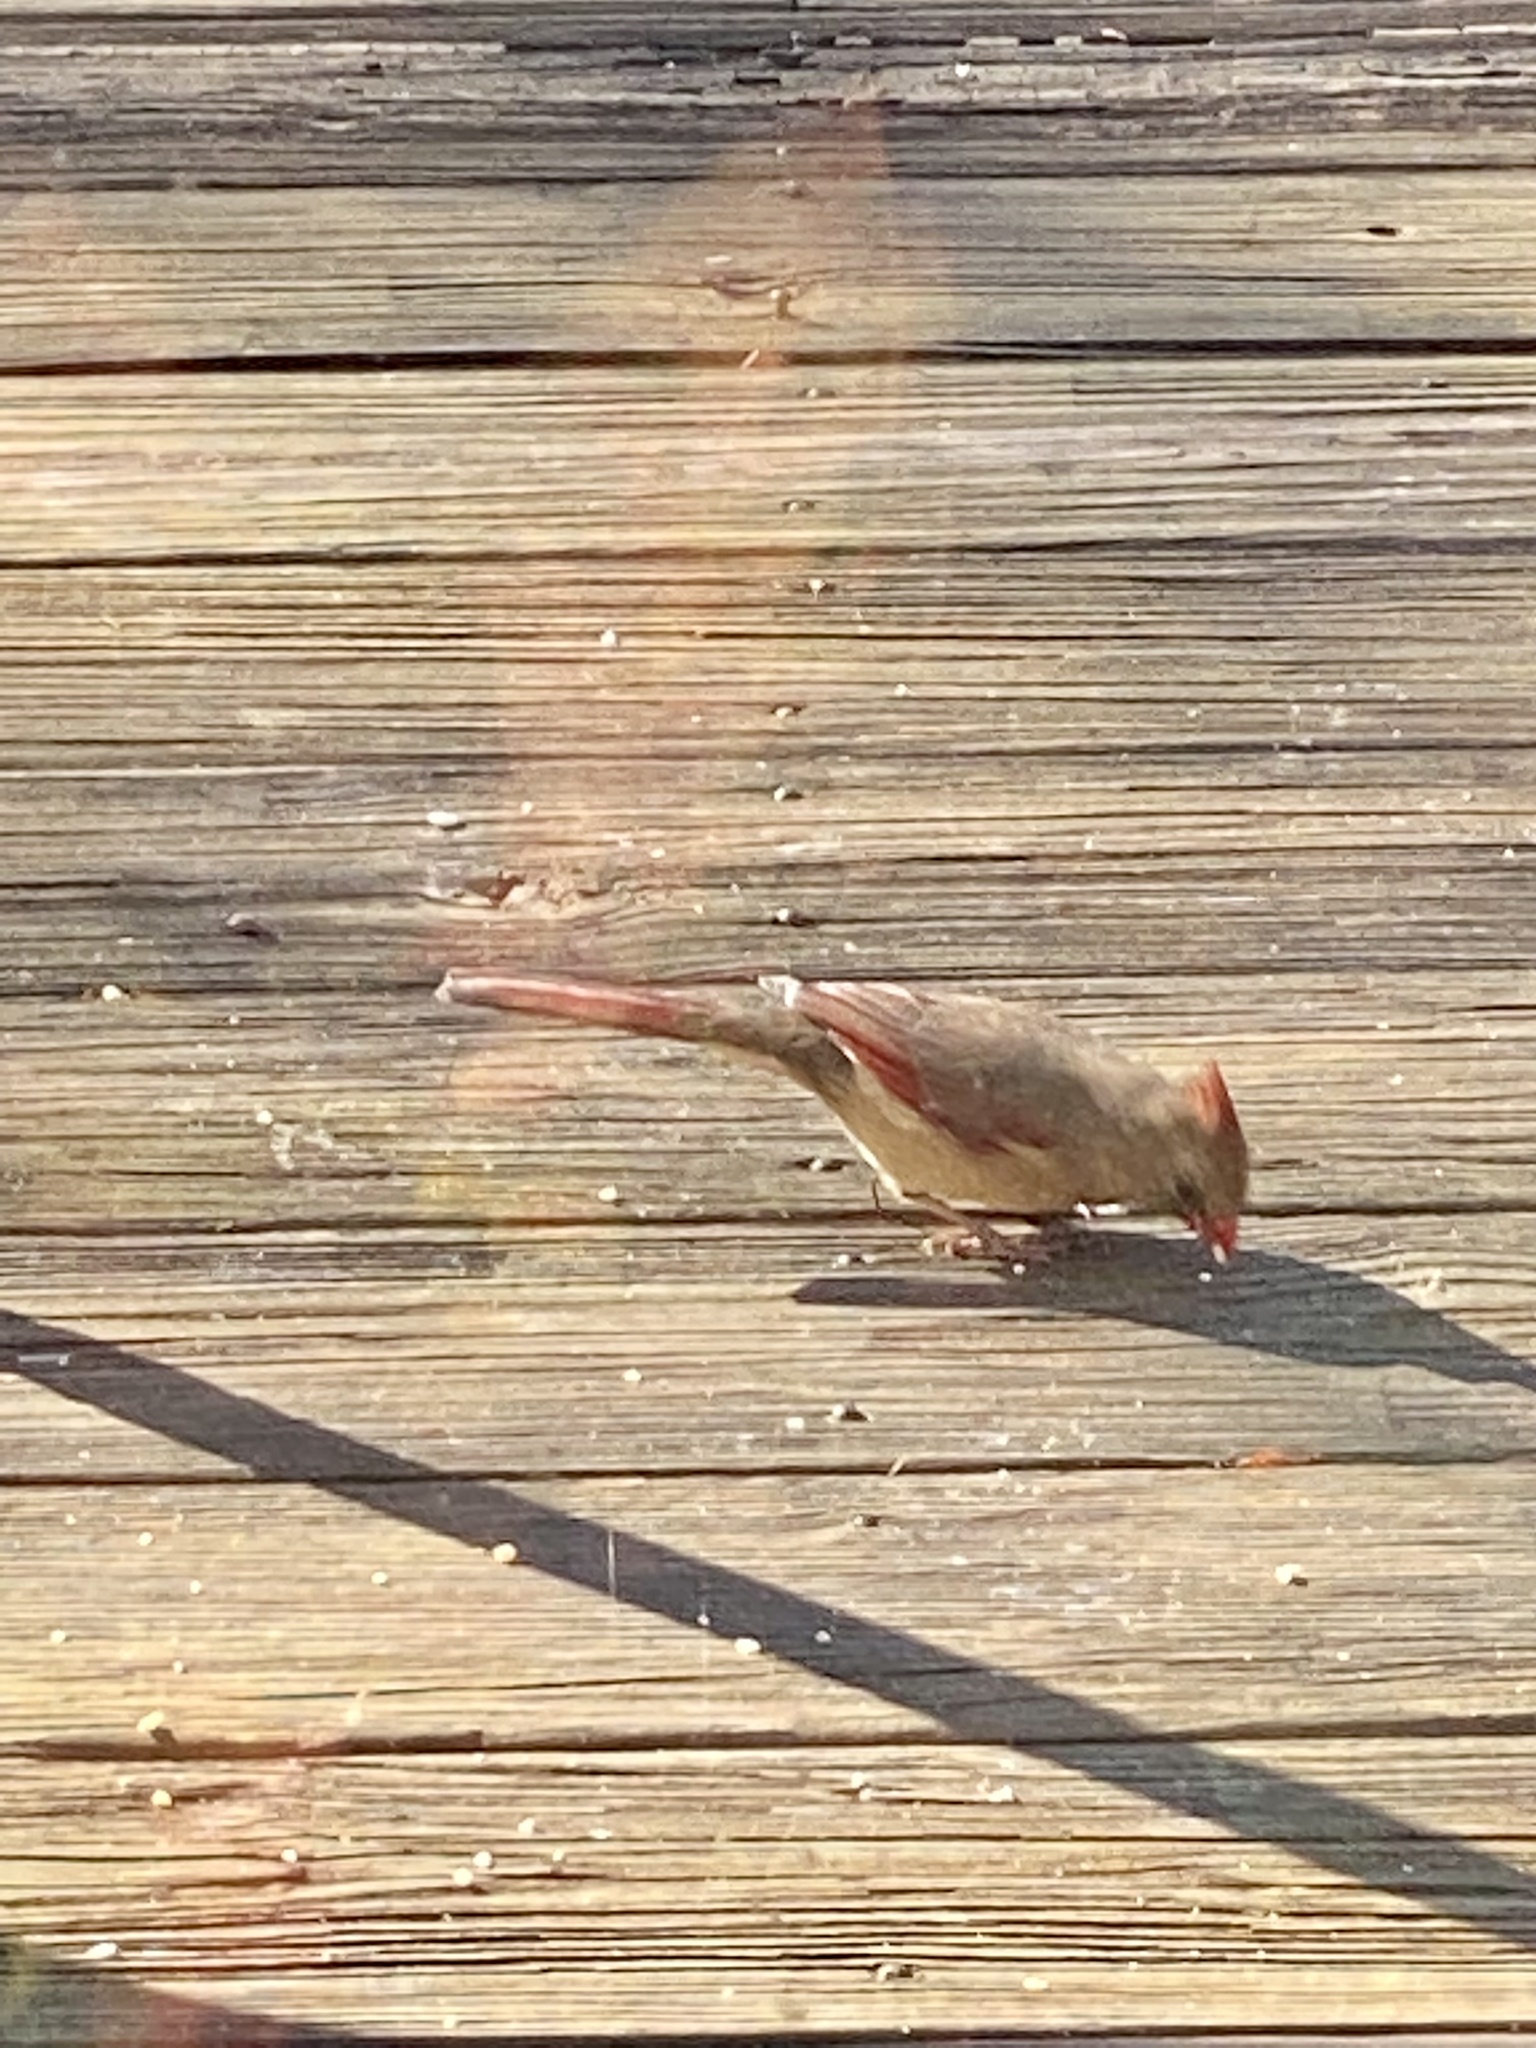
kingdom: Animalia
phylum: Chordata
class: Aves
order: Passeriformes
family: Cardinalidae
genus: Cardinalis
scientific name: Cardinalis cardinalis
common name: Northern cardinal
